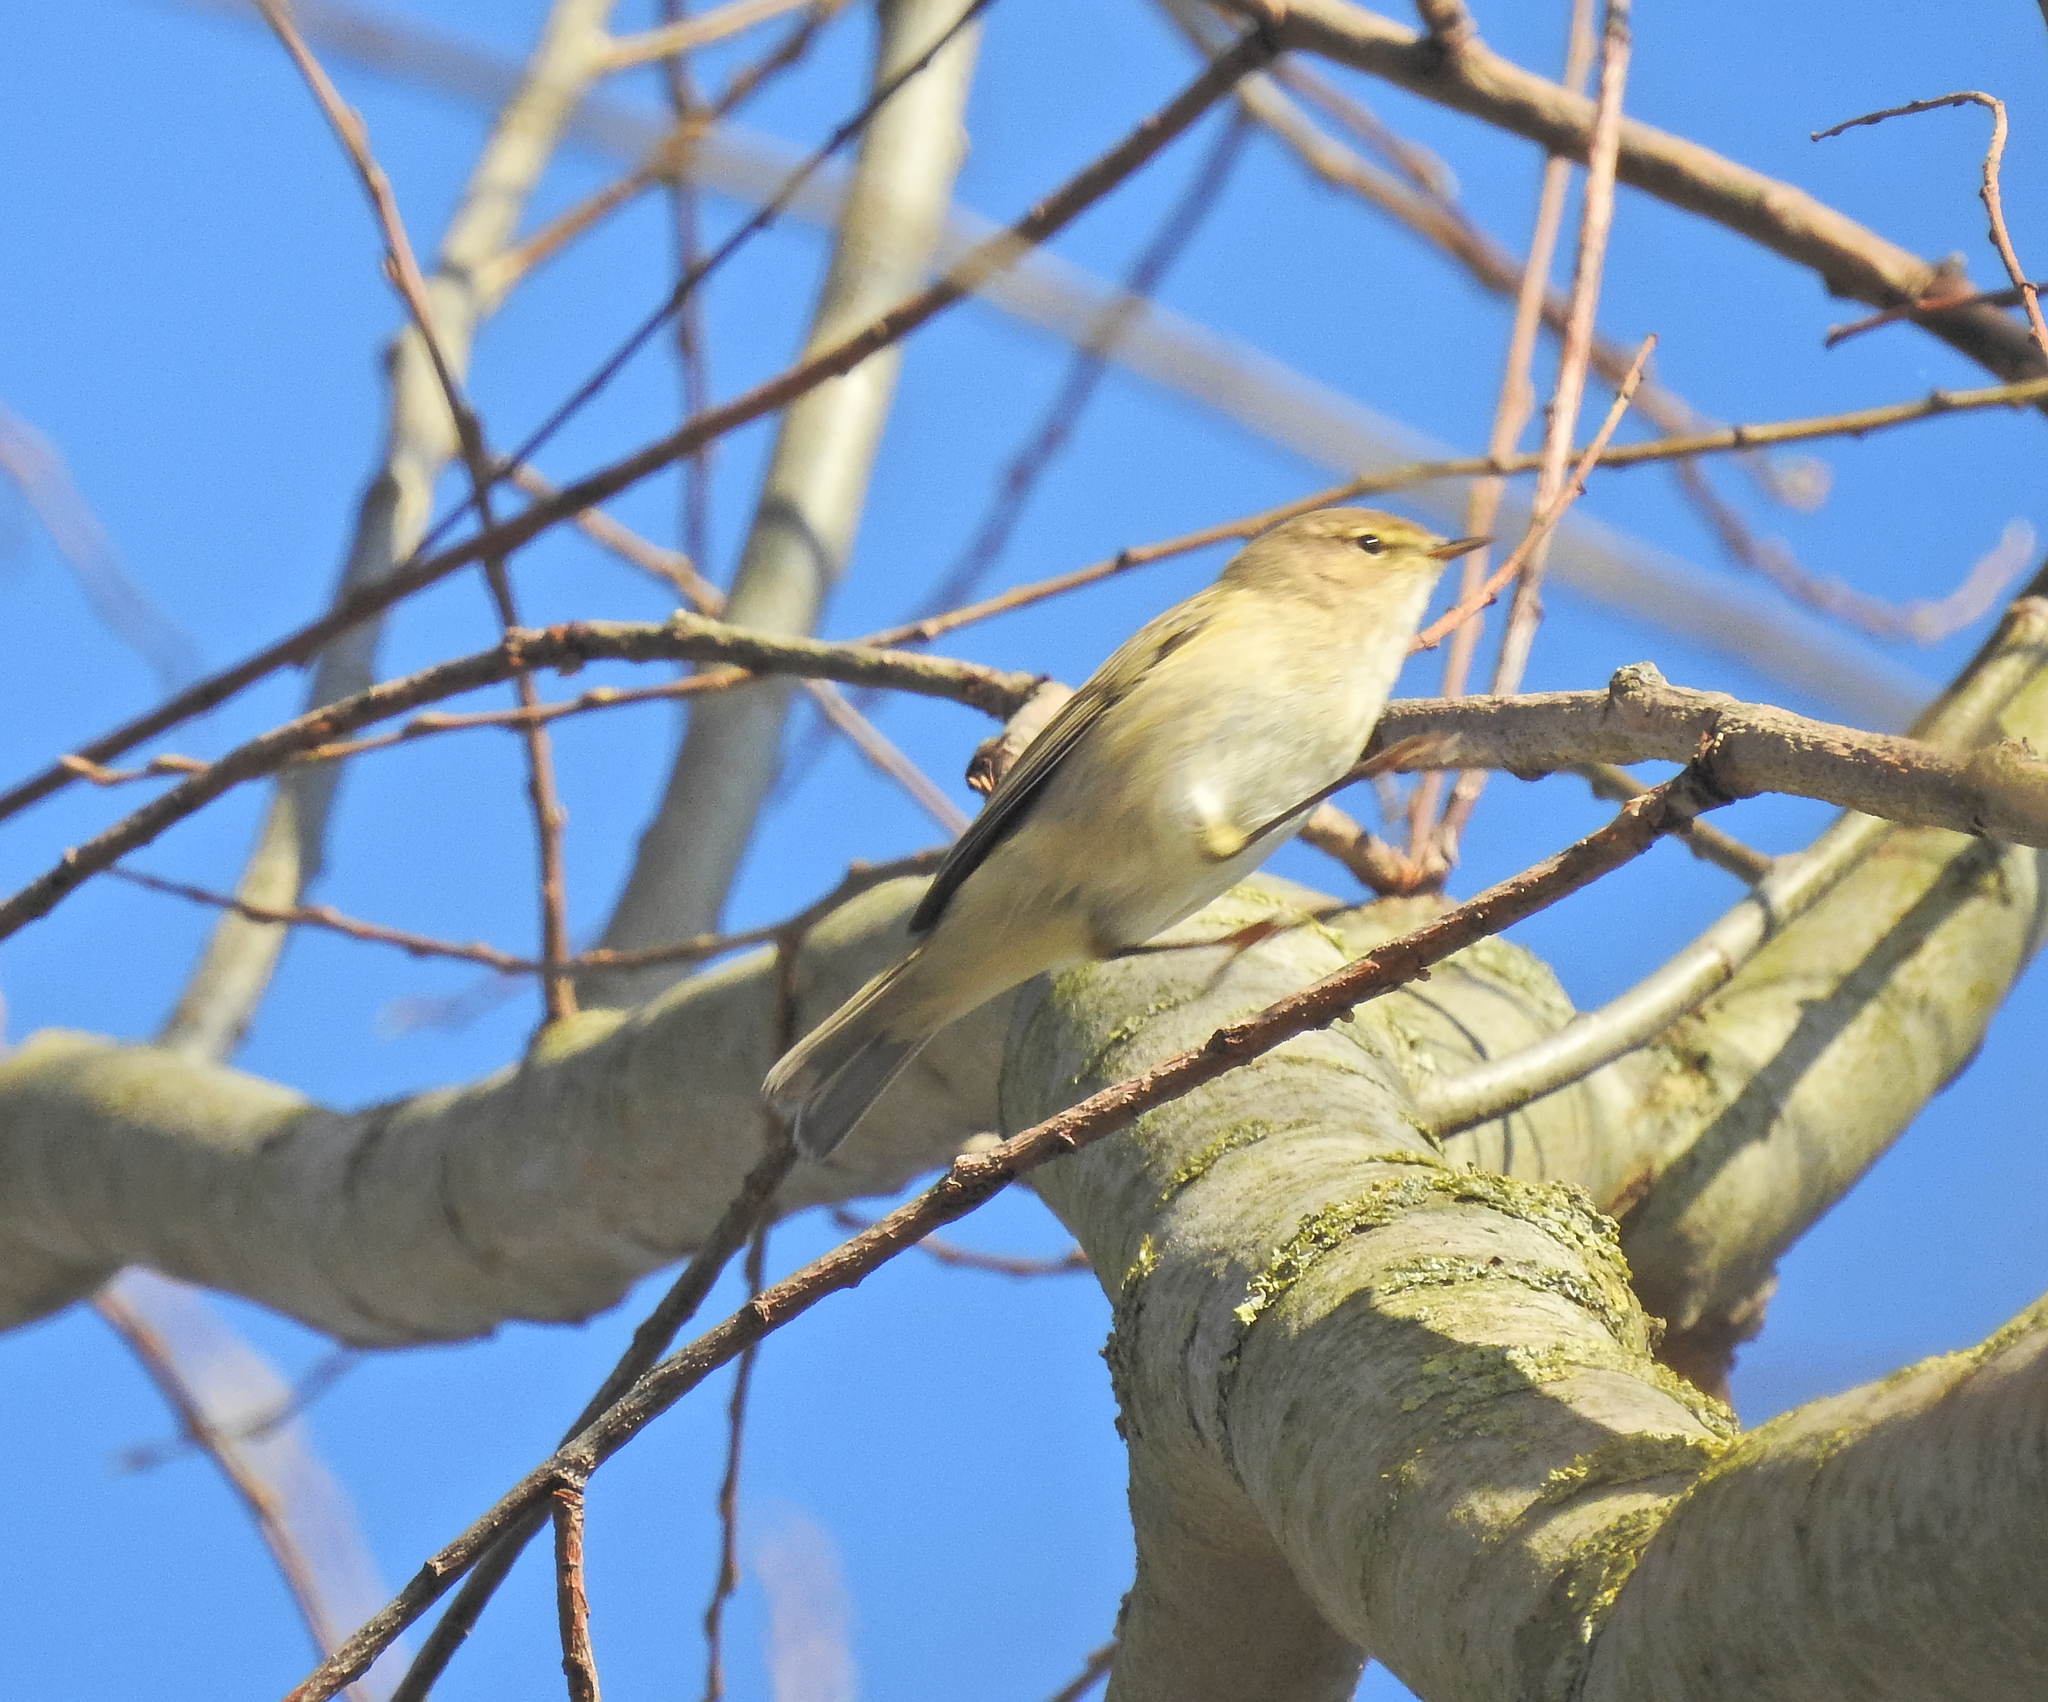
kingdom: Animalia
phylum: Chordata
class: Aves
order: Passeriformes
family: Phylloscopidae
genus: Phylloscopus
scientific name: Phylloscopus collybita
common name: Common chiffchaff
